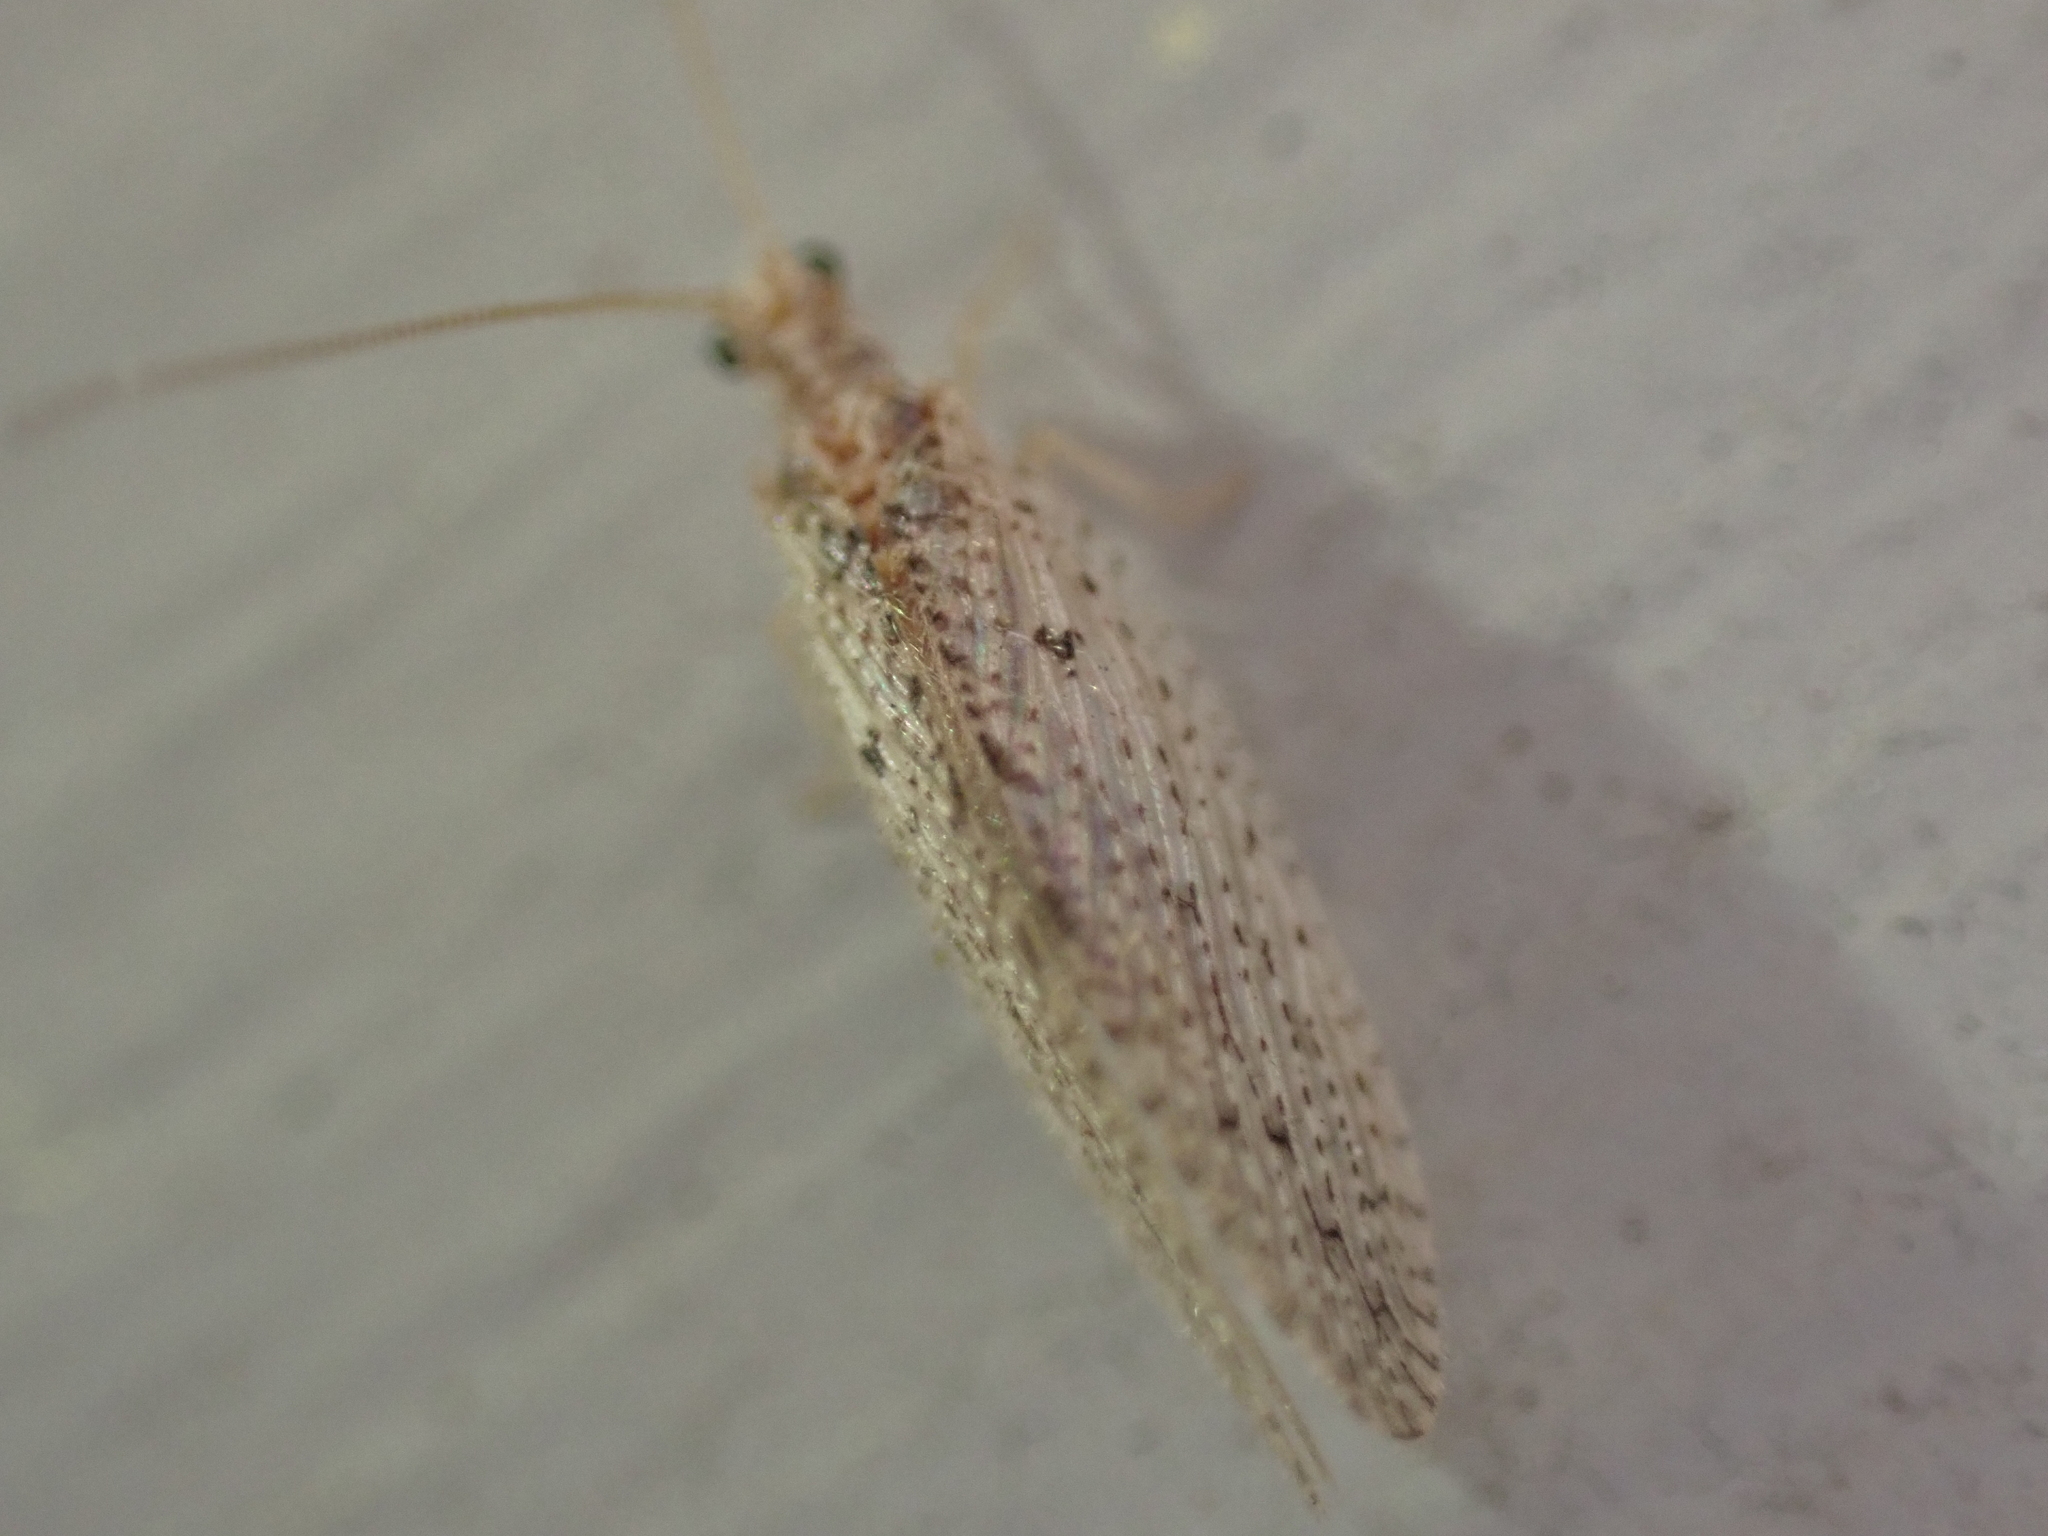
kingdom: Animalia
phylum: Arthropoda
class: Insecta
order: Neuroptera
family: Hemerobiidae
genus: Micromus
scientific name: Micromus subanticus
